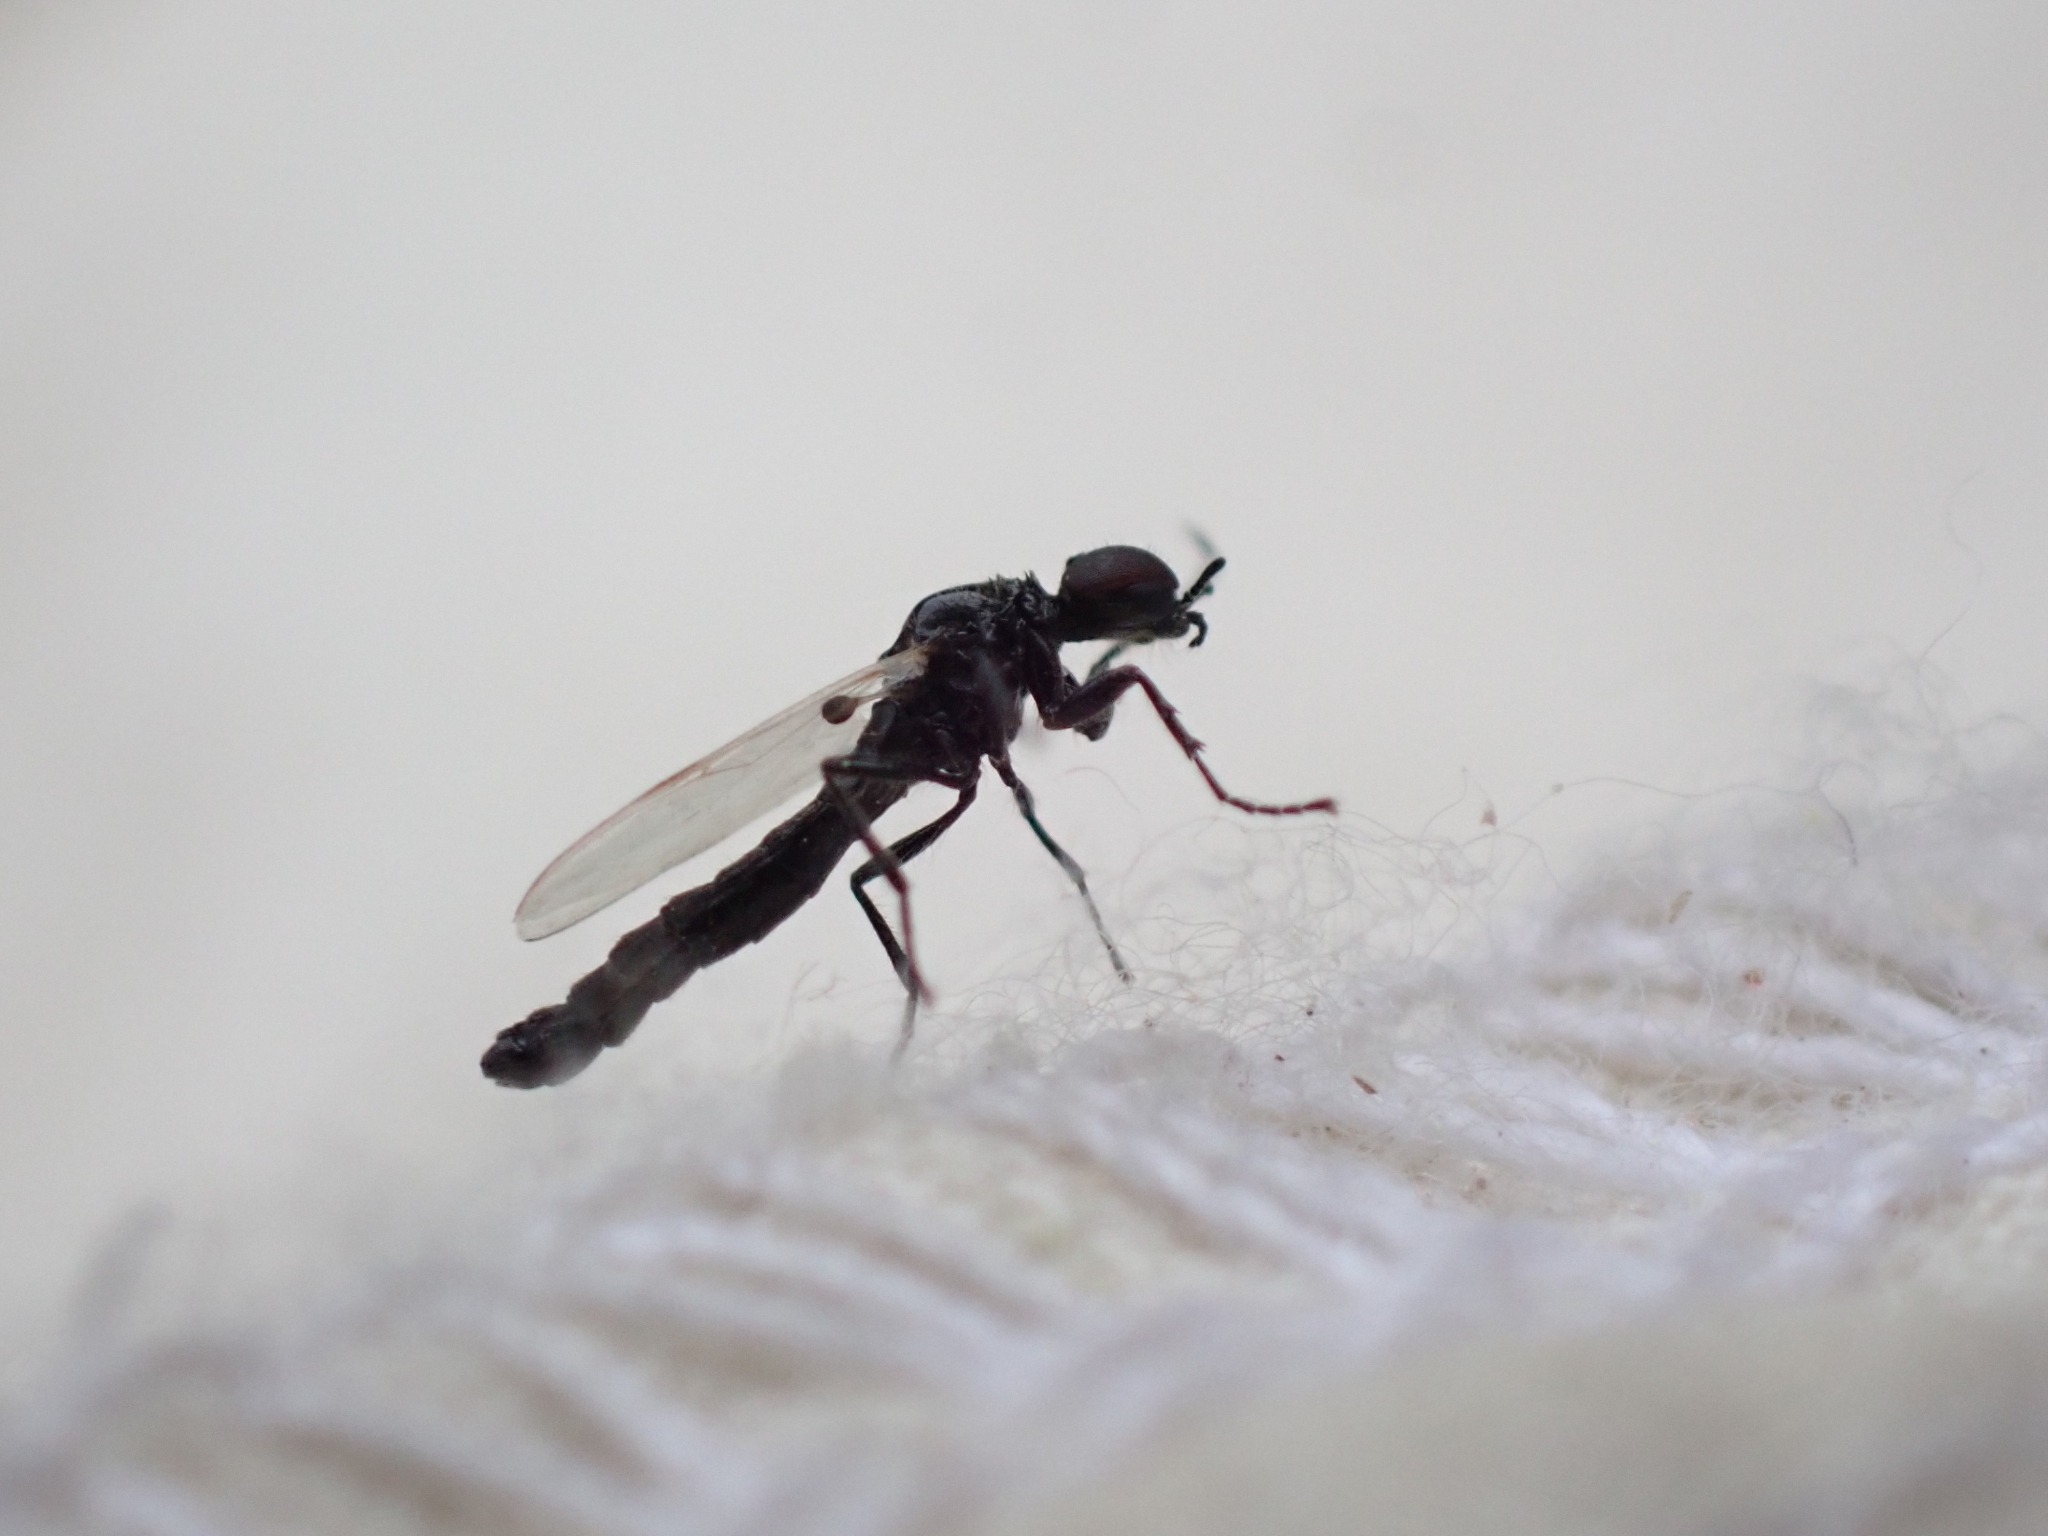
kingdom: Animalia
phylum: Arthropoda
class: Insecta
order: Diptera
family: Bibionidae
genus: Dilophus
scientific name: Dilophus
